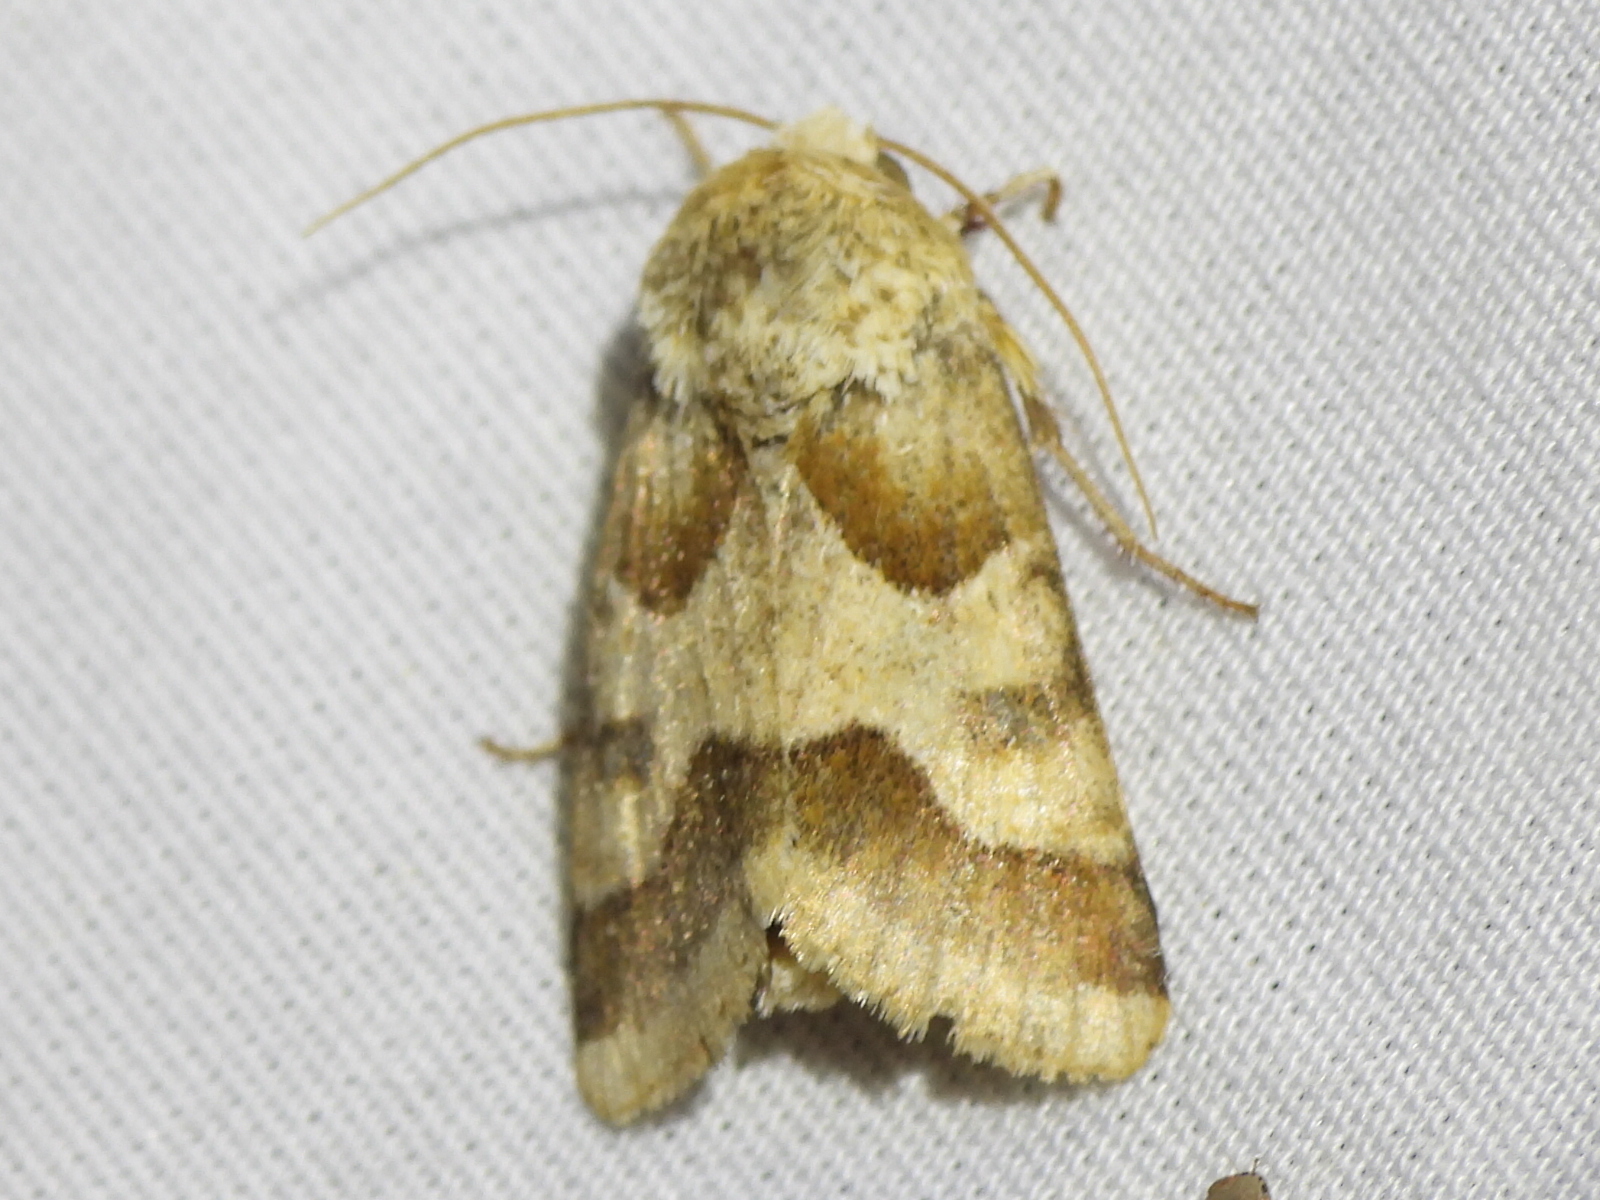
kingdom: Animalia
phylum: Arthropoda
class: Insecta
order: Lepidoptera
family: Noctuidae
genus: Schinia
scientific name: Schinia jaguarina
